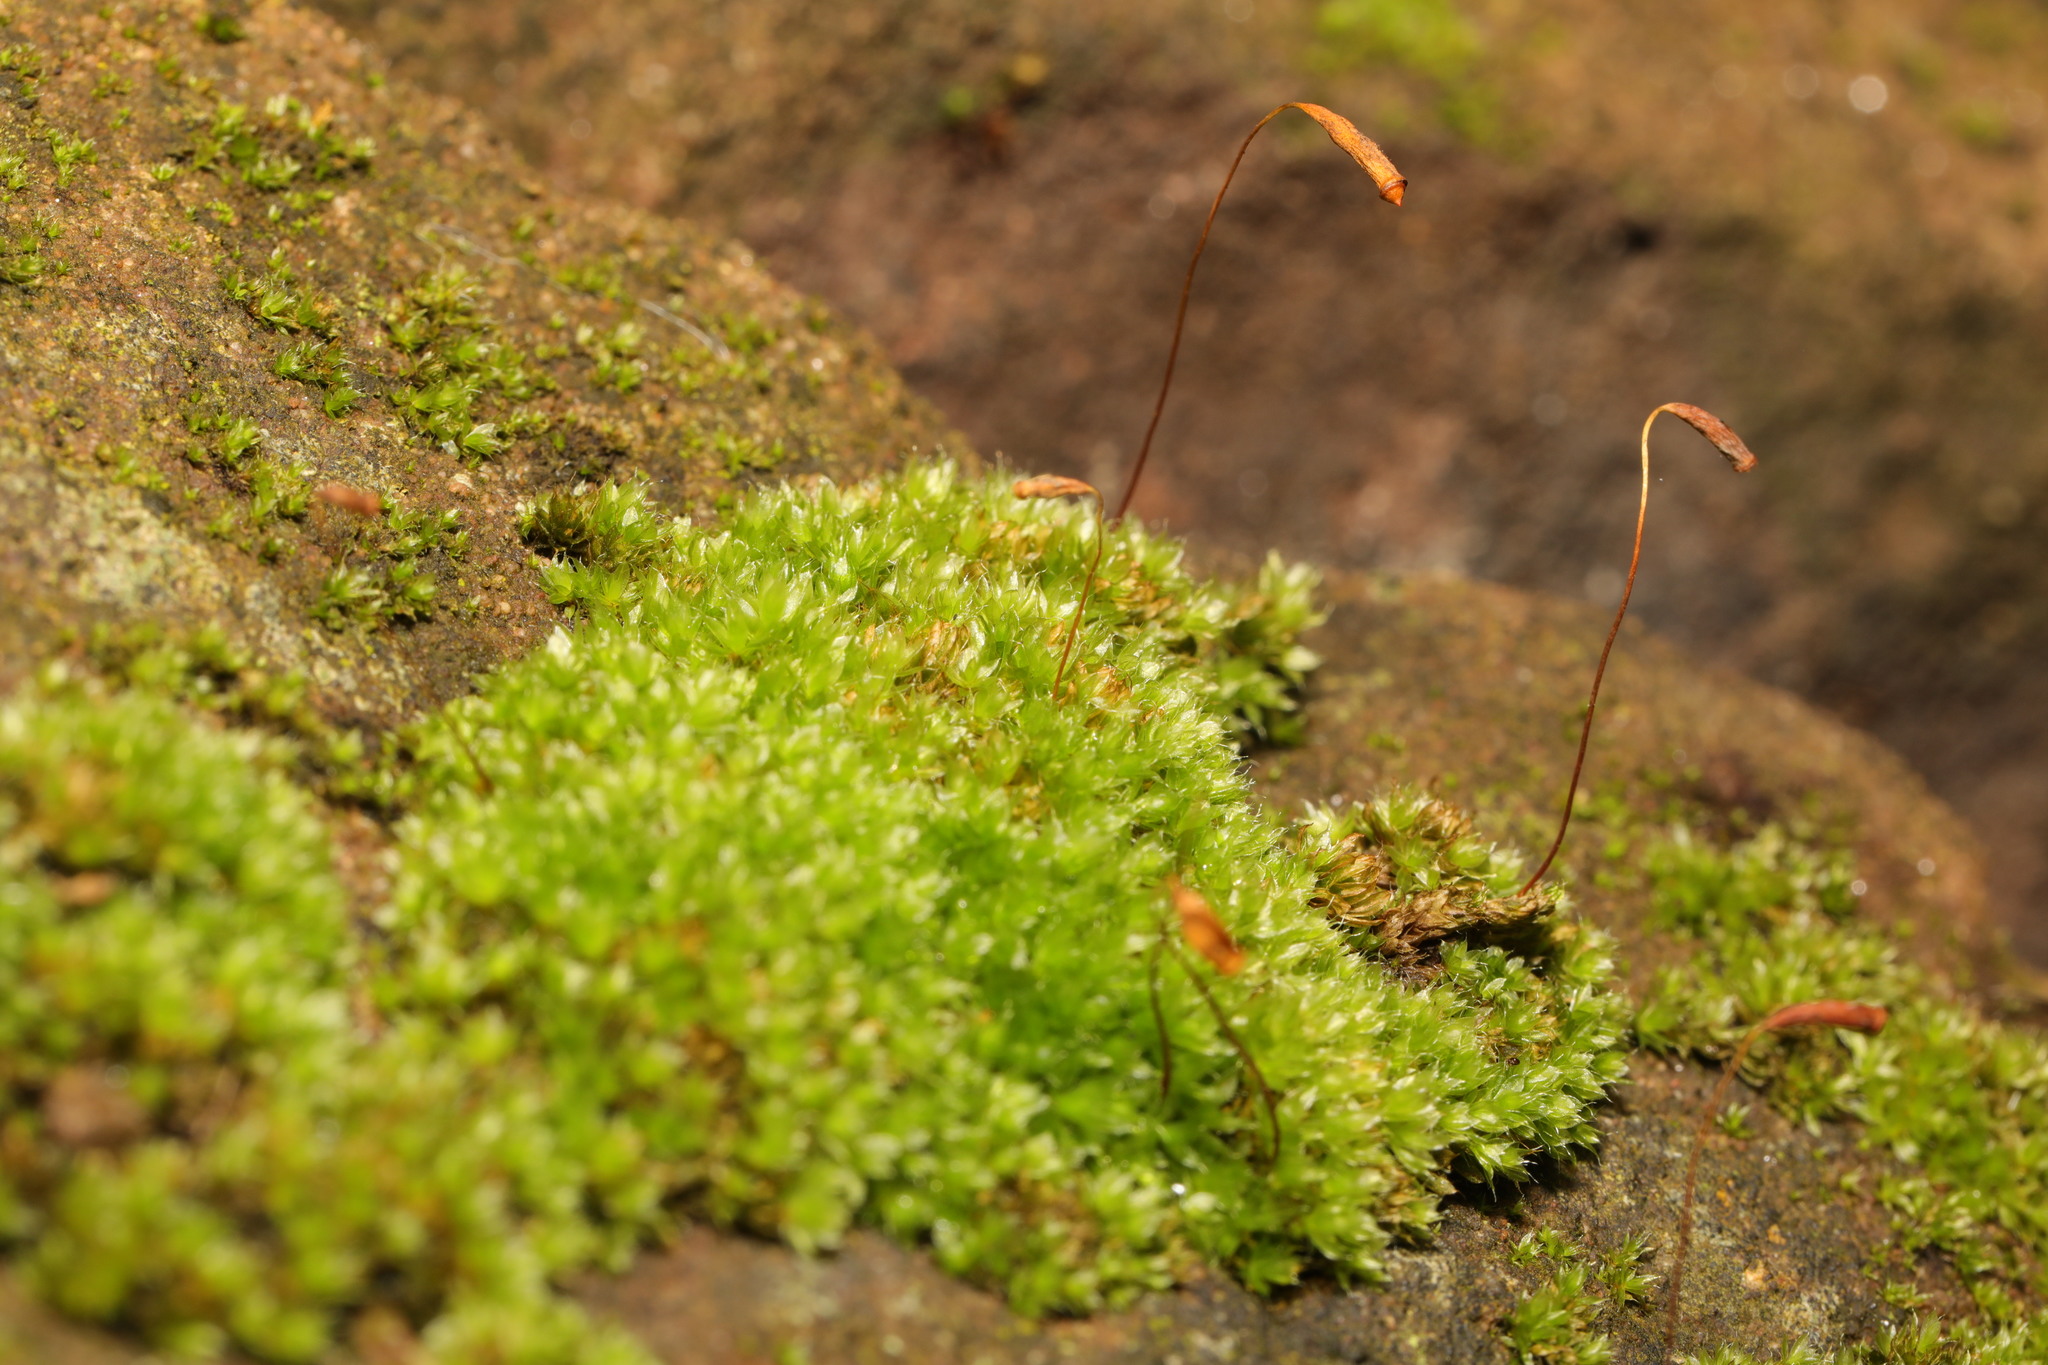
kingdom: Plantae
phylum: Bryophyta
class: Bryopsida
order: Bryales
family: Bryaceae
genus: Rosulabryum
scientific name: Rosulabryum capillare
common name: Capillary thread-moss
